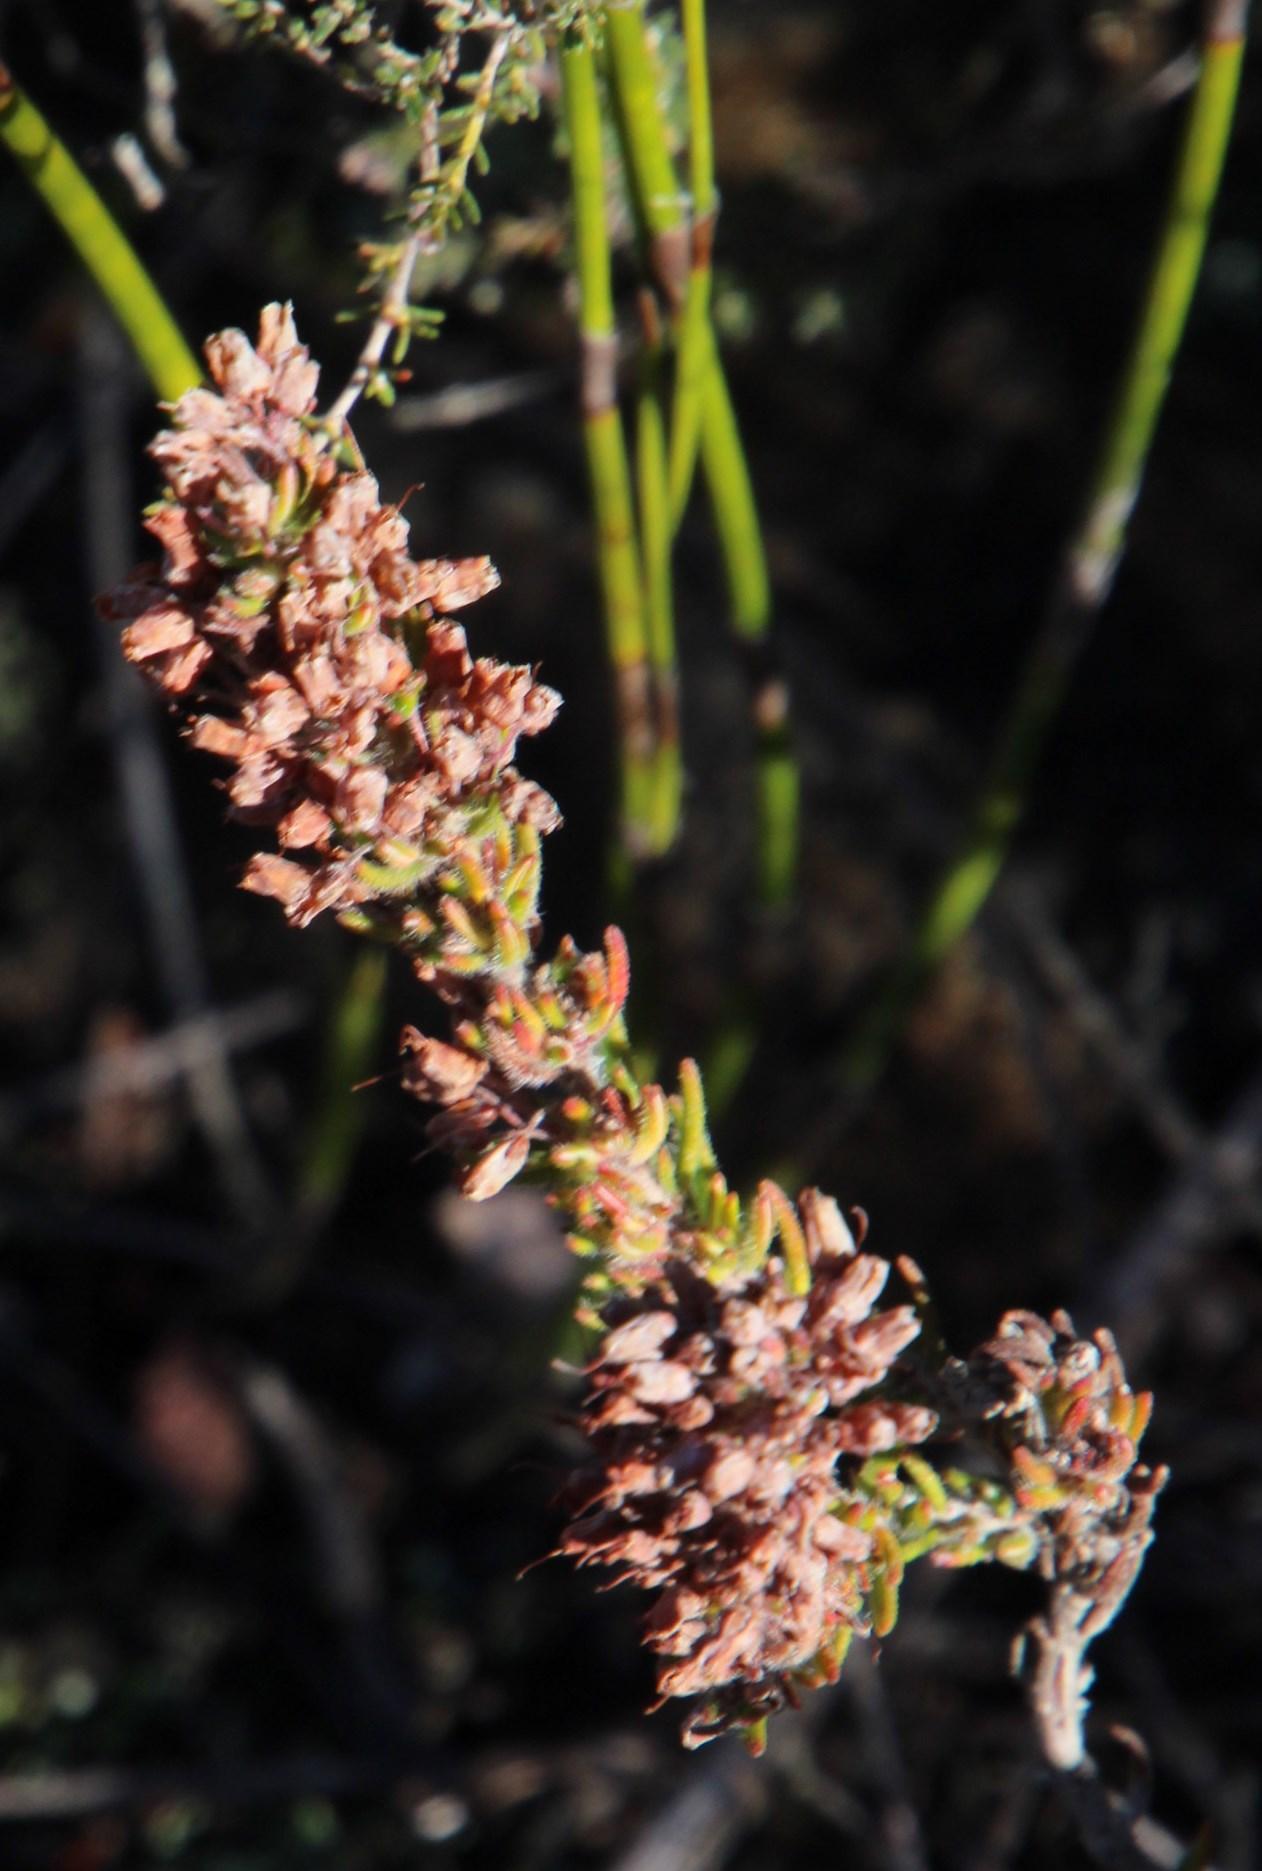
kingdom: Plantae
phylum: Tracheophyta
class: Magnoliopsida
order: Ericales
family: Ericaceae
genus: Erica
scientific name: Erica nudiflora
